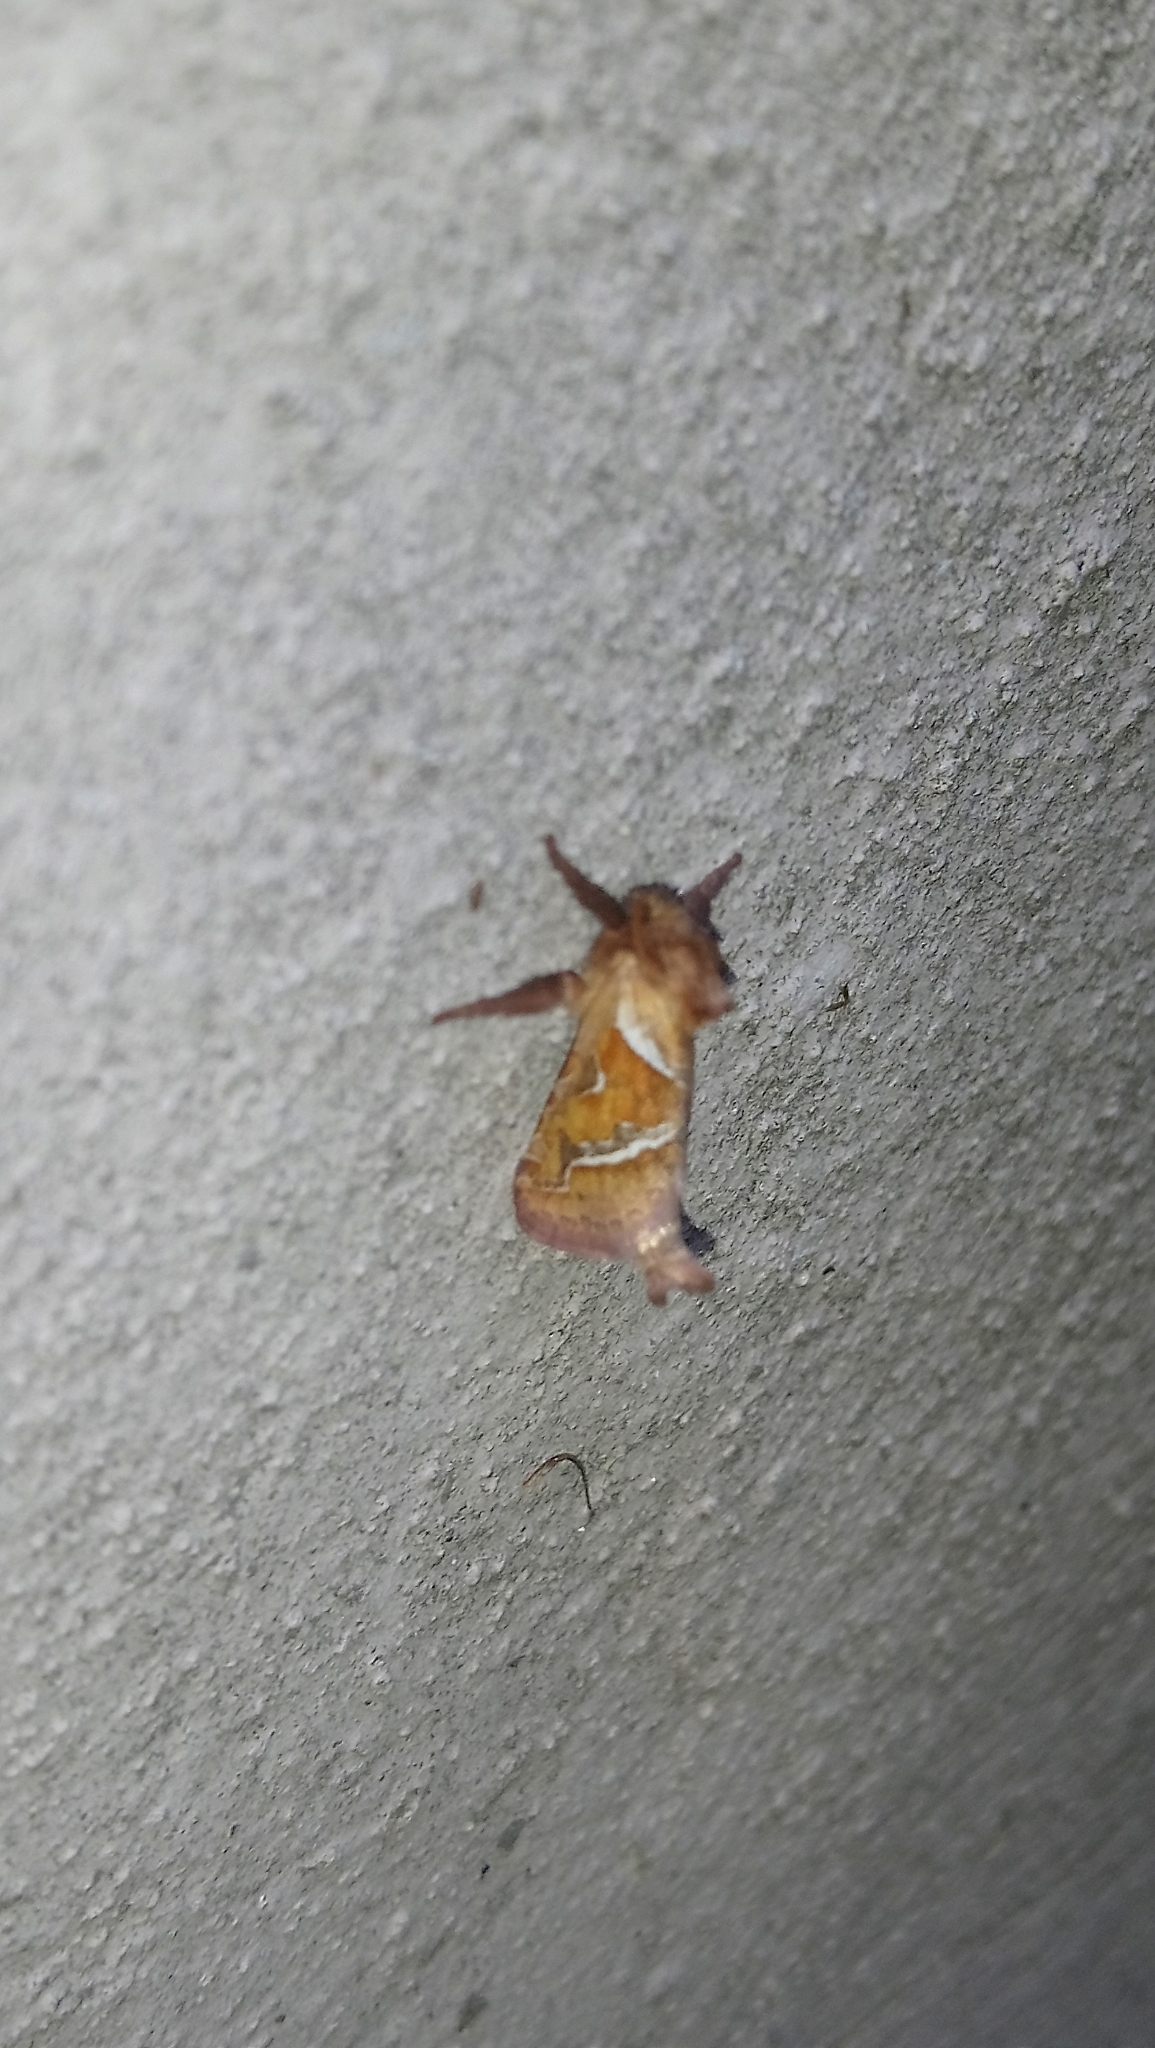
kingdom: Animalia
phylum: Arthropoda
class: Insecta
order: Lepidoptera
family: Hepialidae
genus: Triodia
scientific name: Triodia sylvina
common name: Orange swift
